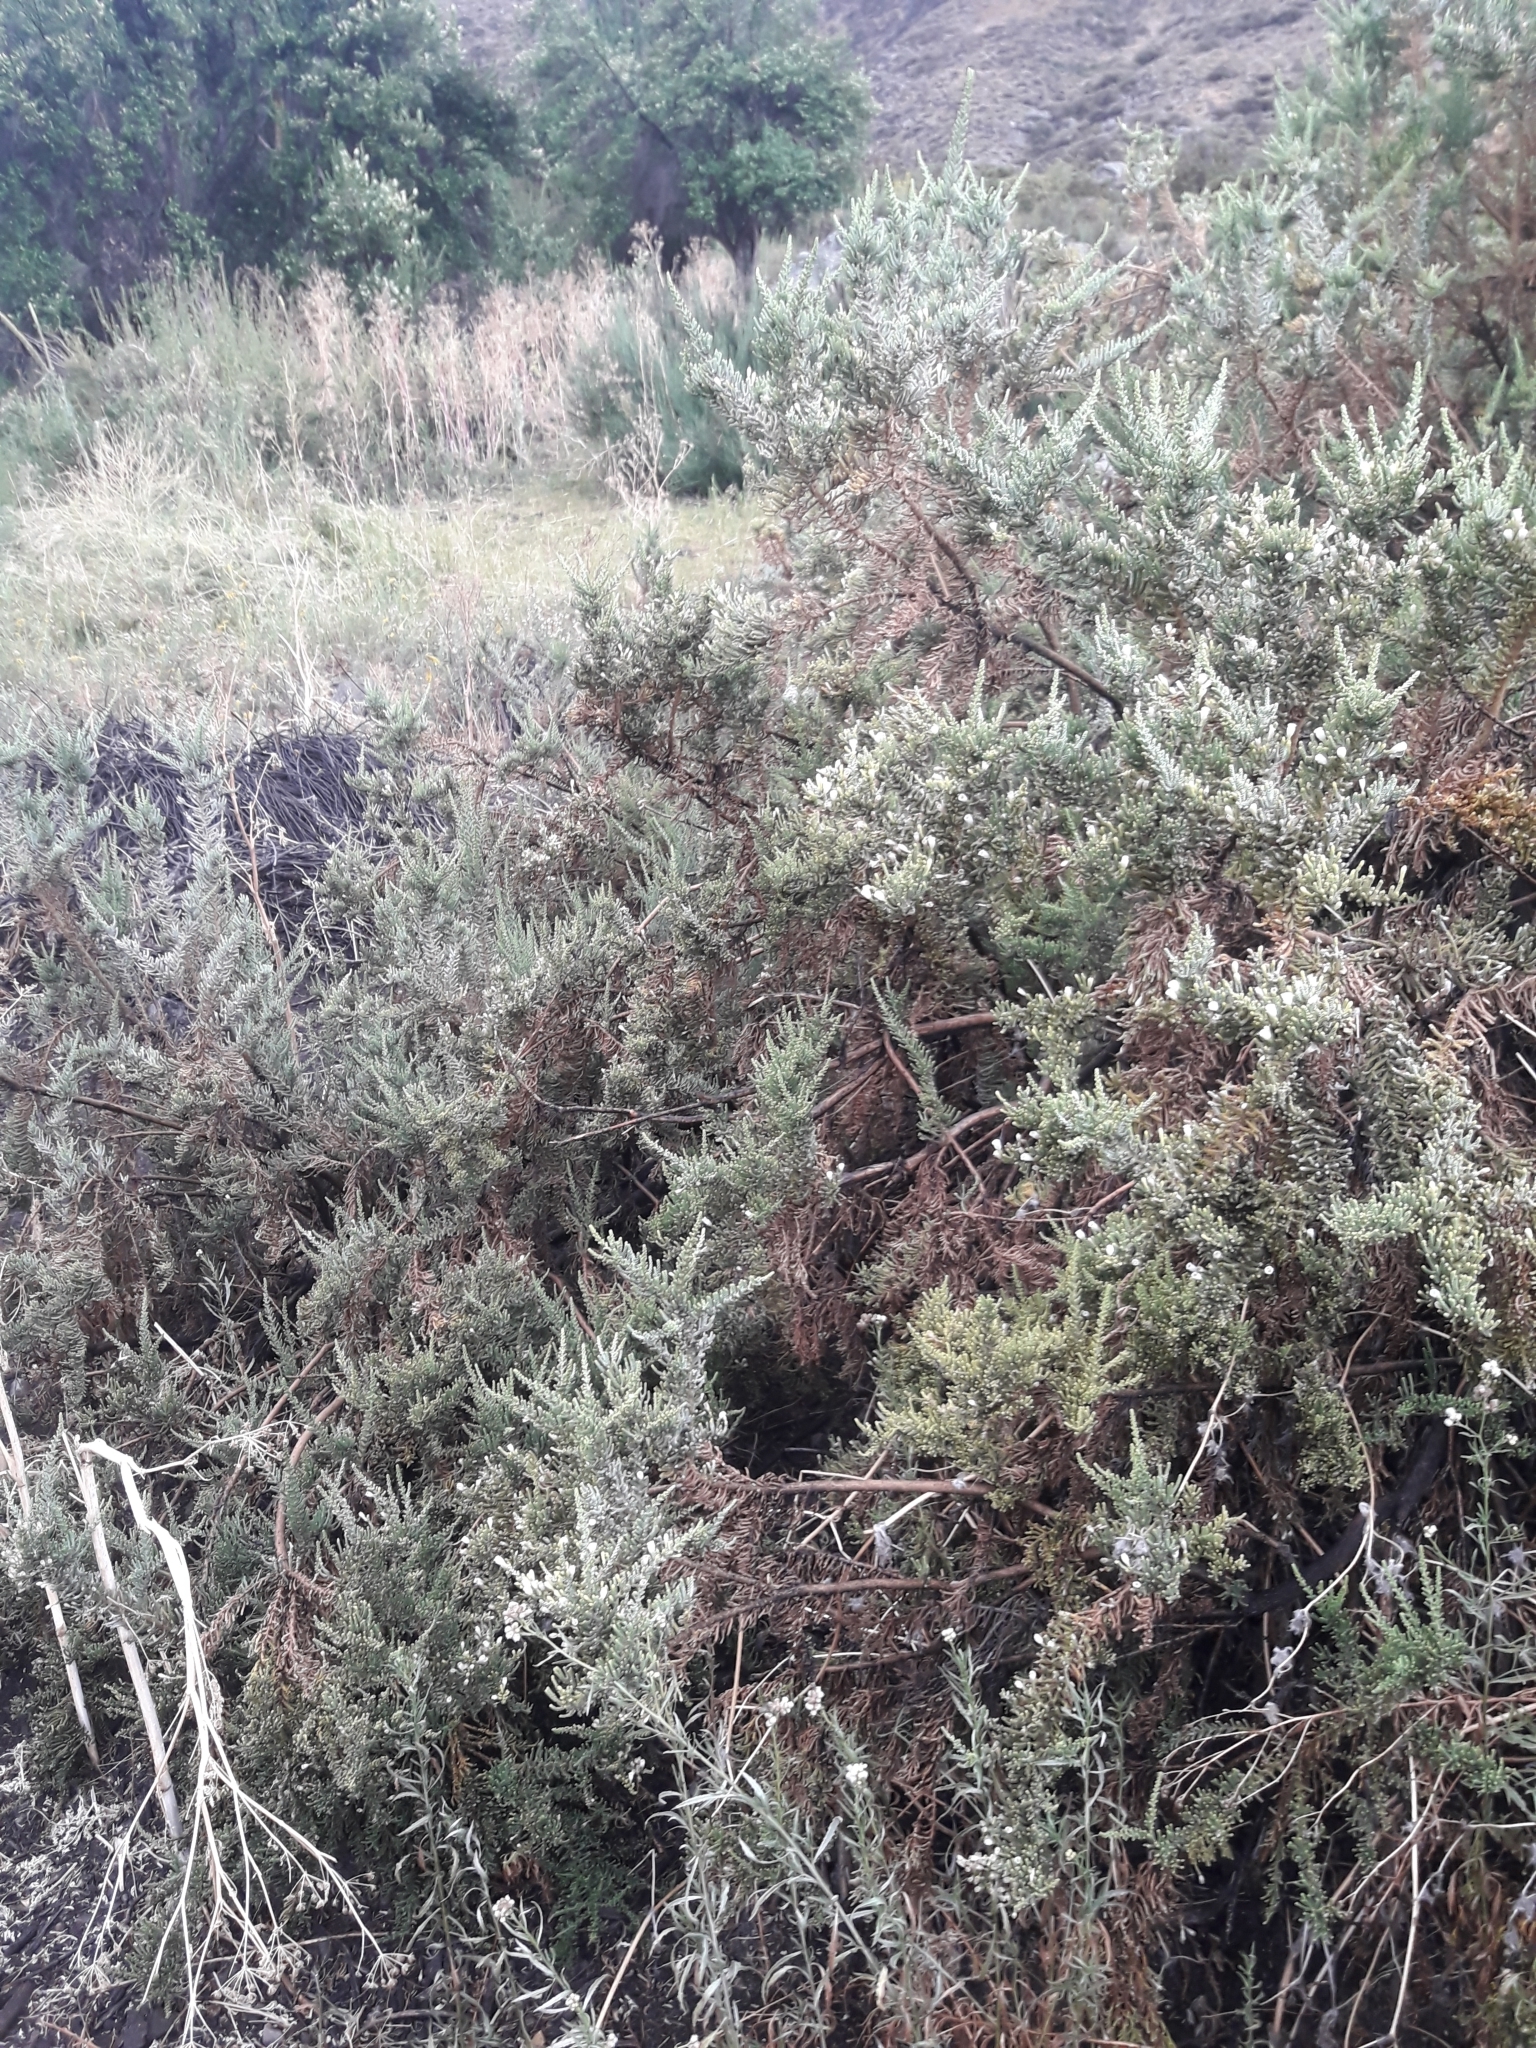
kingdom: Plantae
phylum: Tracheophyta
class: Magnoliopsida
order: Solanales
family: Solanaceae
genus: Fabiana
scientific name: Fabiana imbricata
